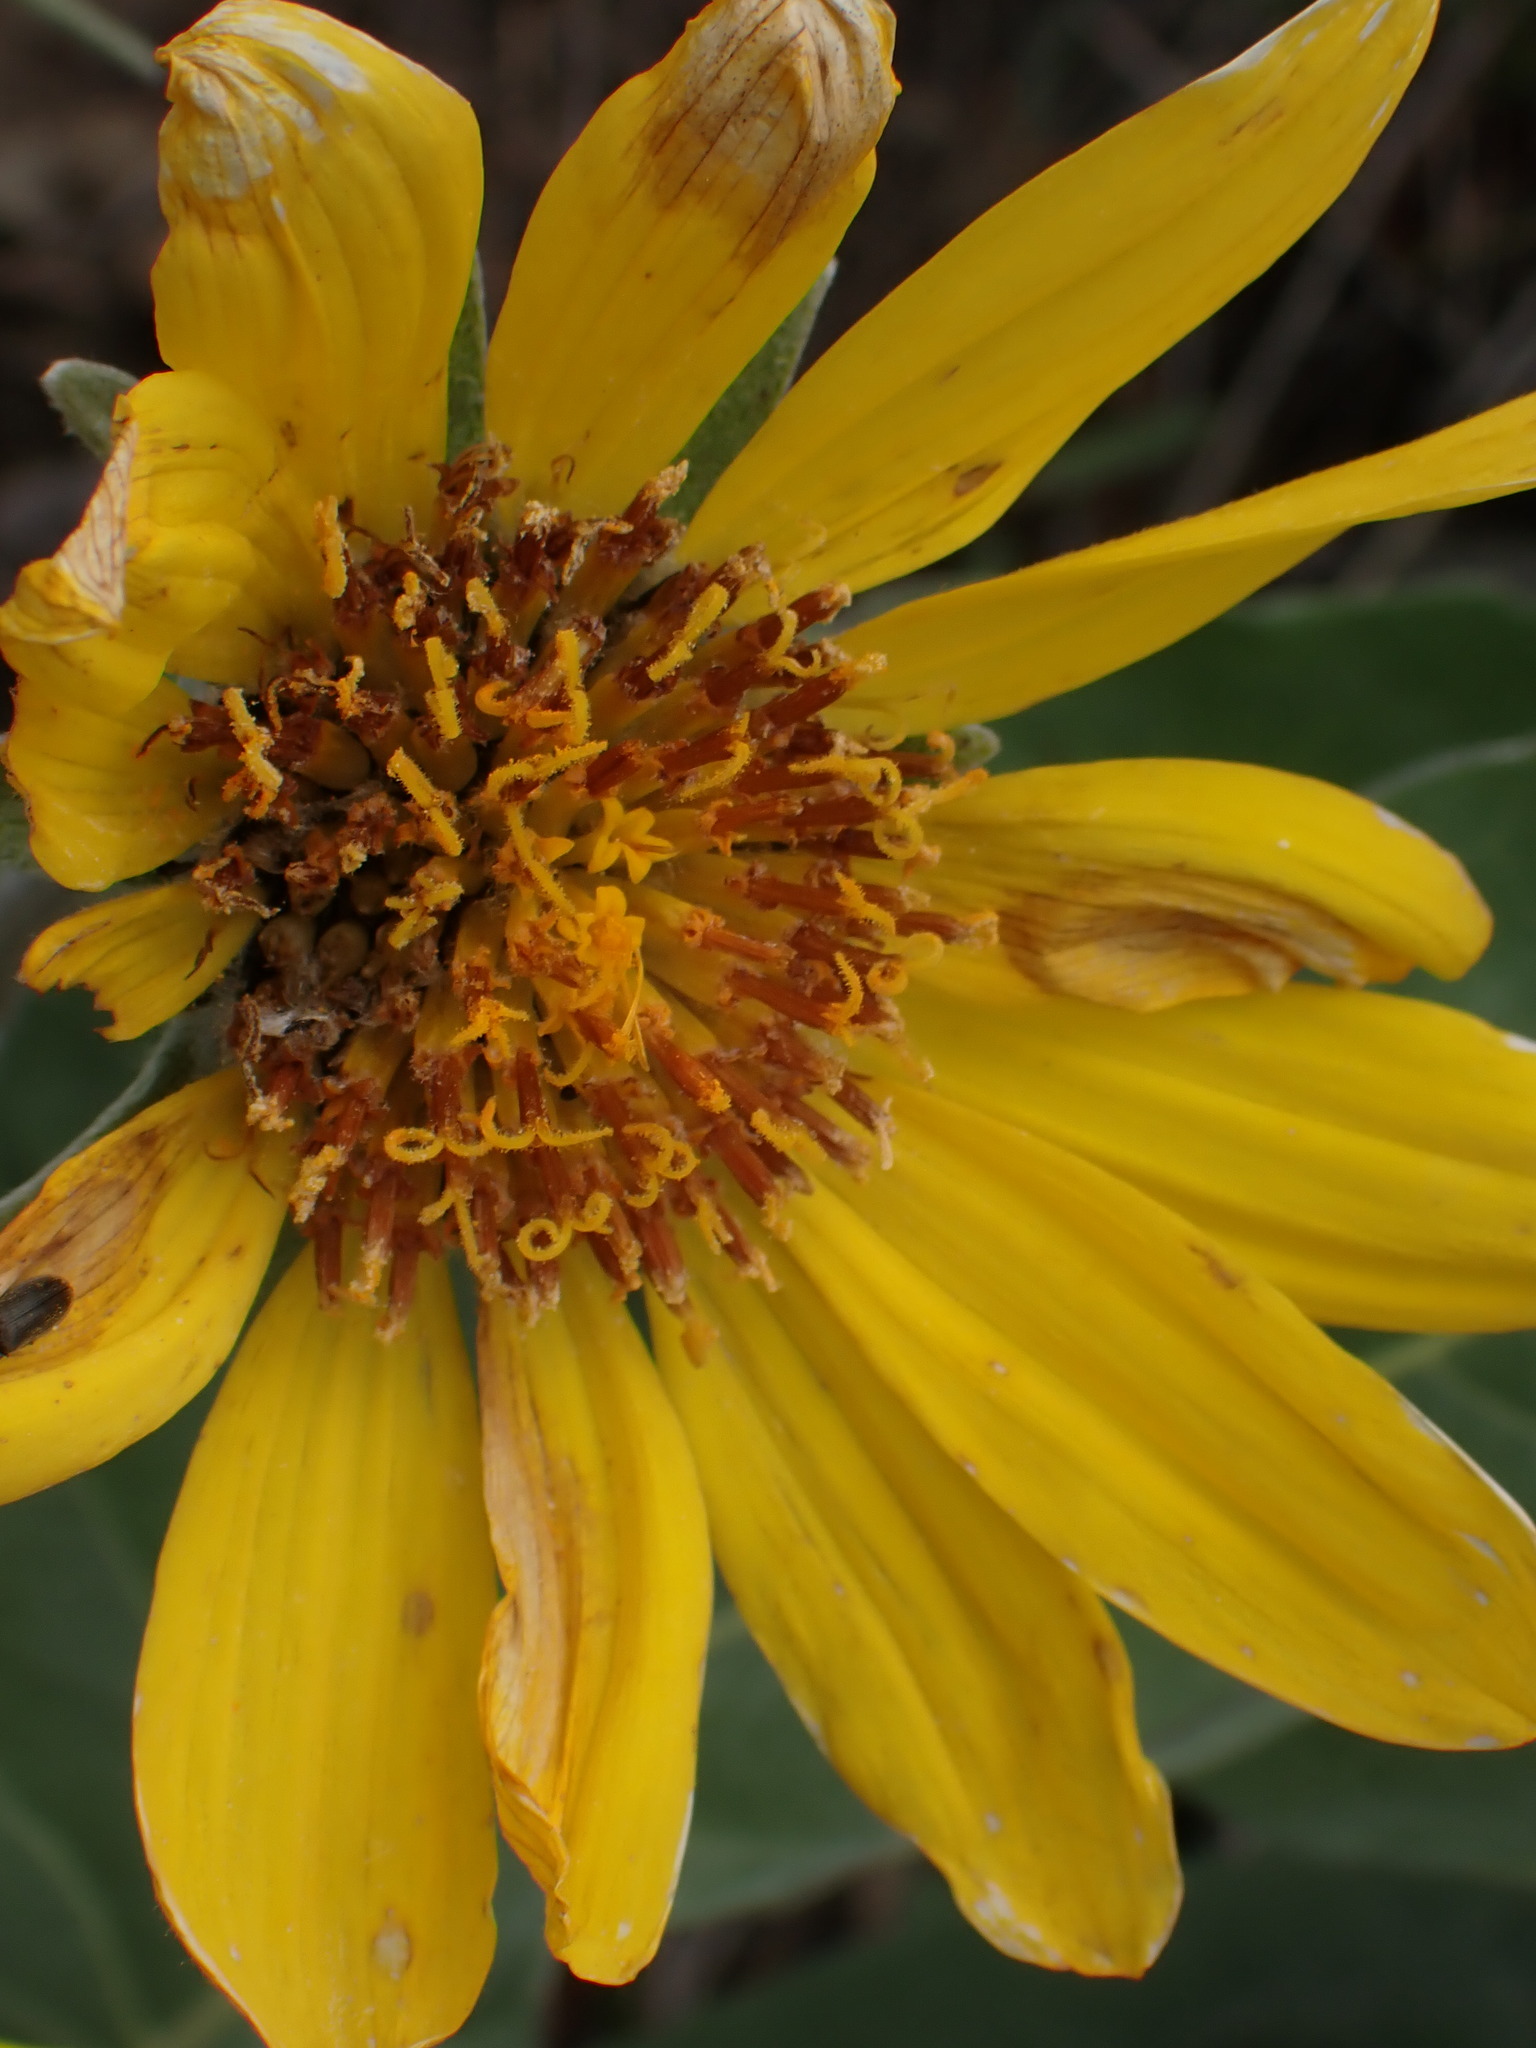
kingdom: Plantae
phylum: Tracheophyta
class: Magnoliopsida
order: Asterales
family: Asteraceae
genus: Wyethia
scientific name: Wyethia sagittata
